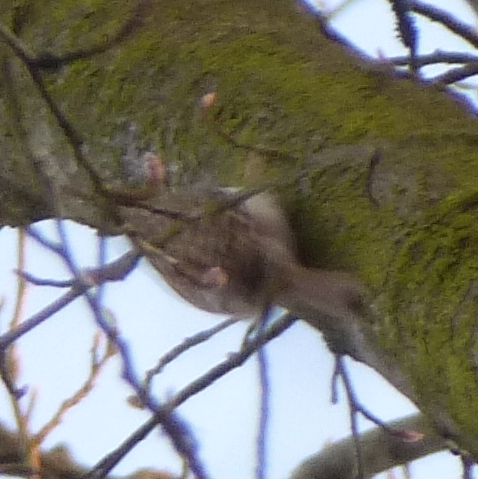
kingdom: Animalia
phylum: Chordata
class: Aves
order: Passeriformes
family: Certhiidae
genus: Certhia
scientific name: Certhia familiaris
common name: Eurasian treecreeper
